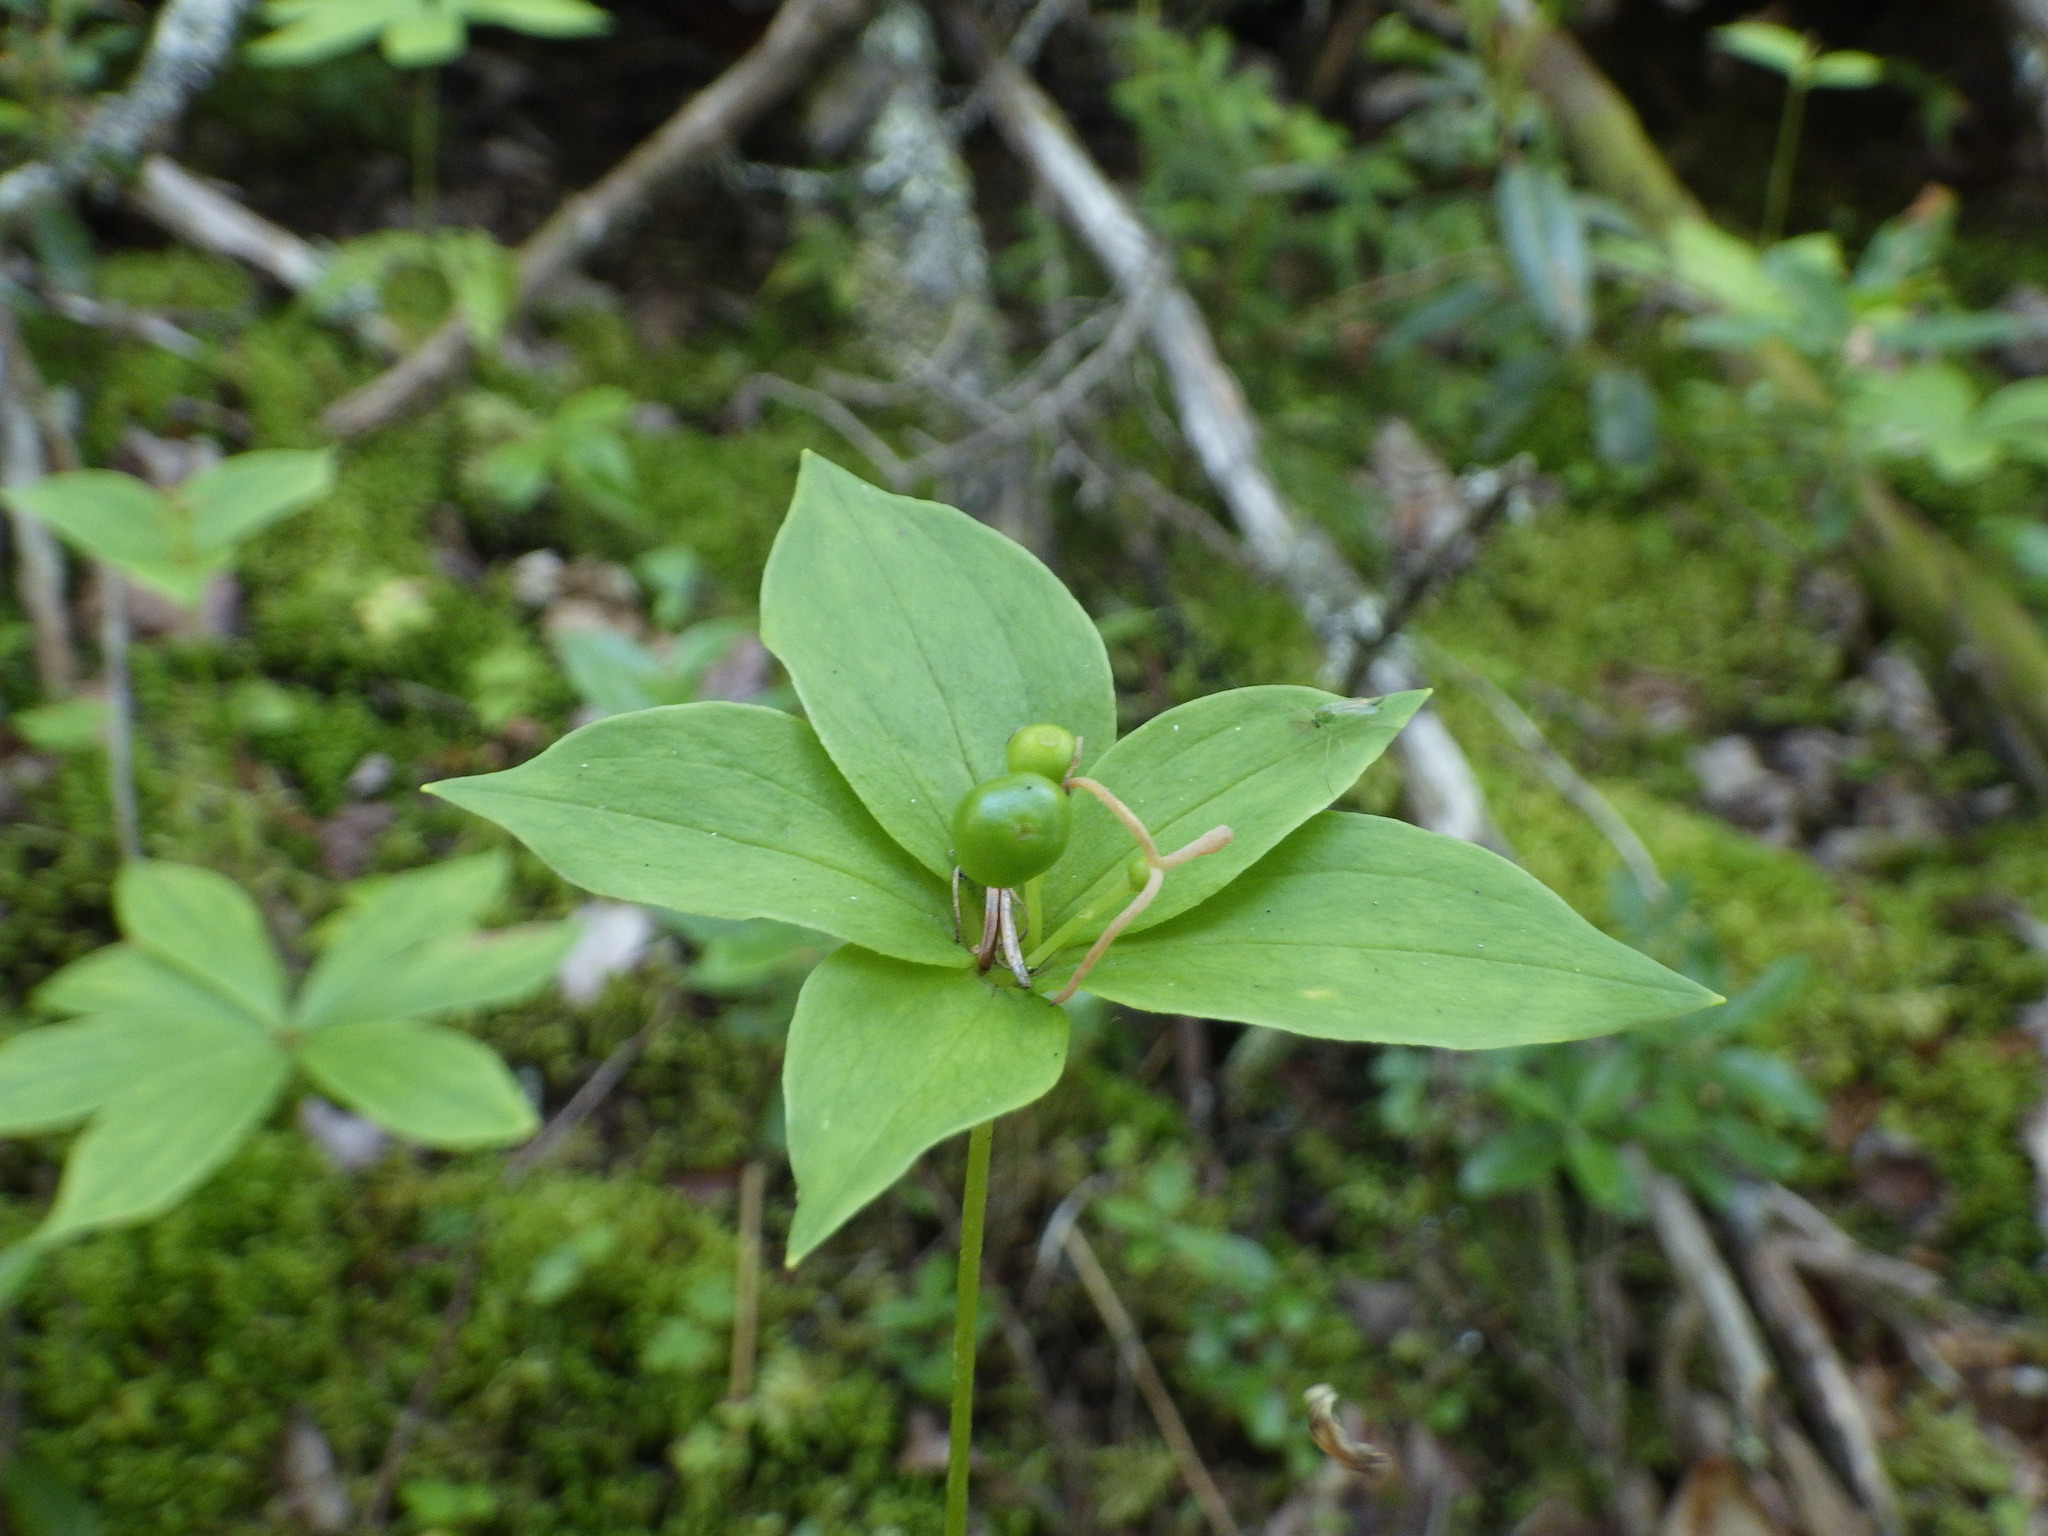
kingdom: Plantae
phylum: Tracheophyta
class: Liliopsida
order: Liliales
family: Liliaceae
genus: Medeola
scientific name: Medeola virginiana
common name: Indian cucumber-root
